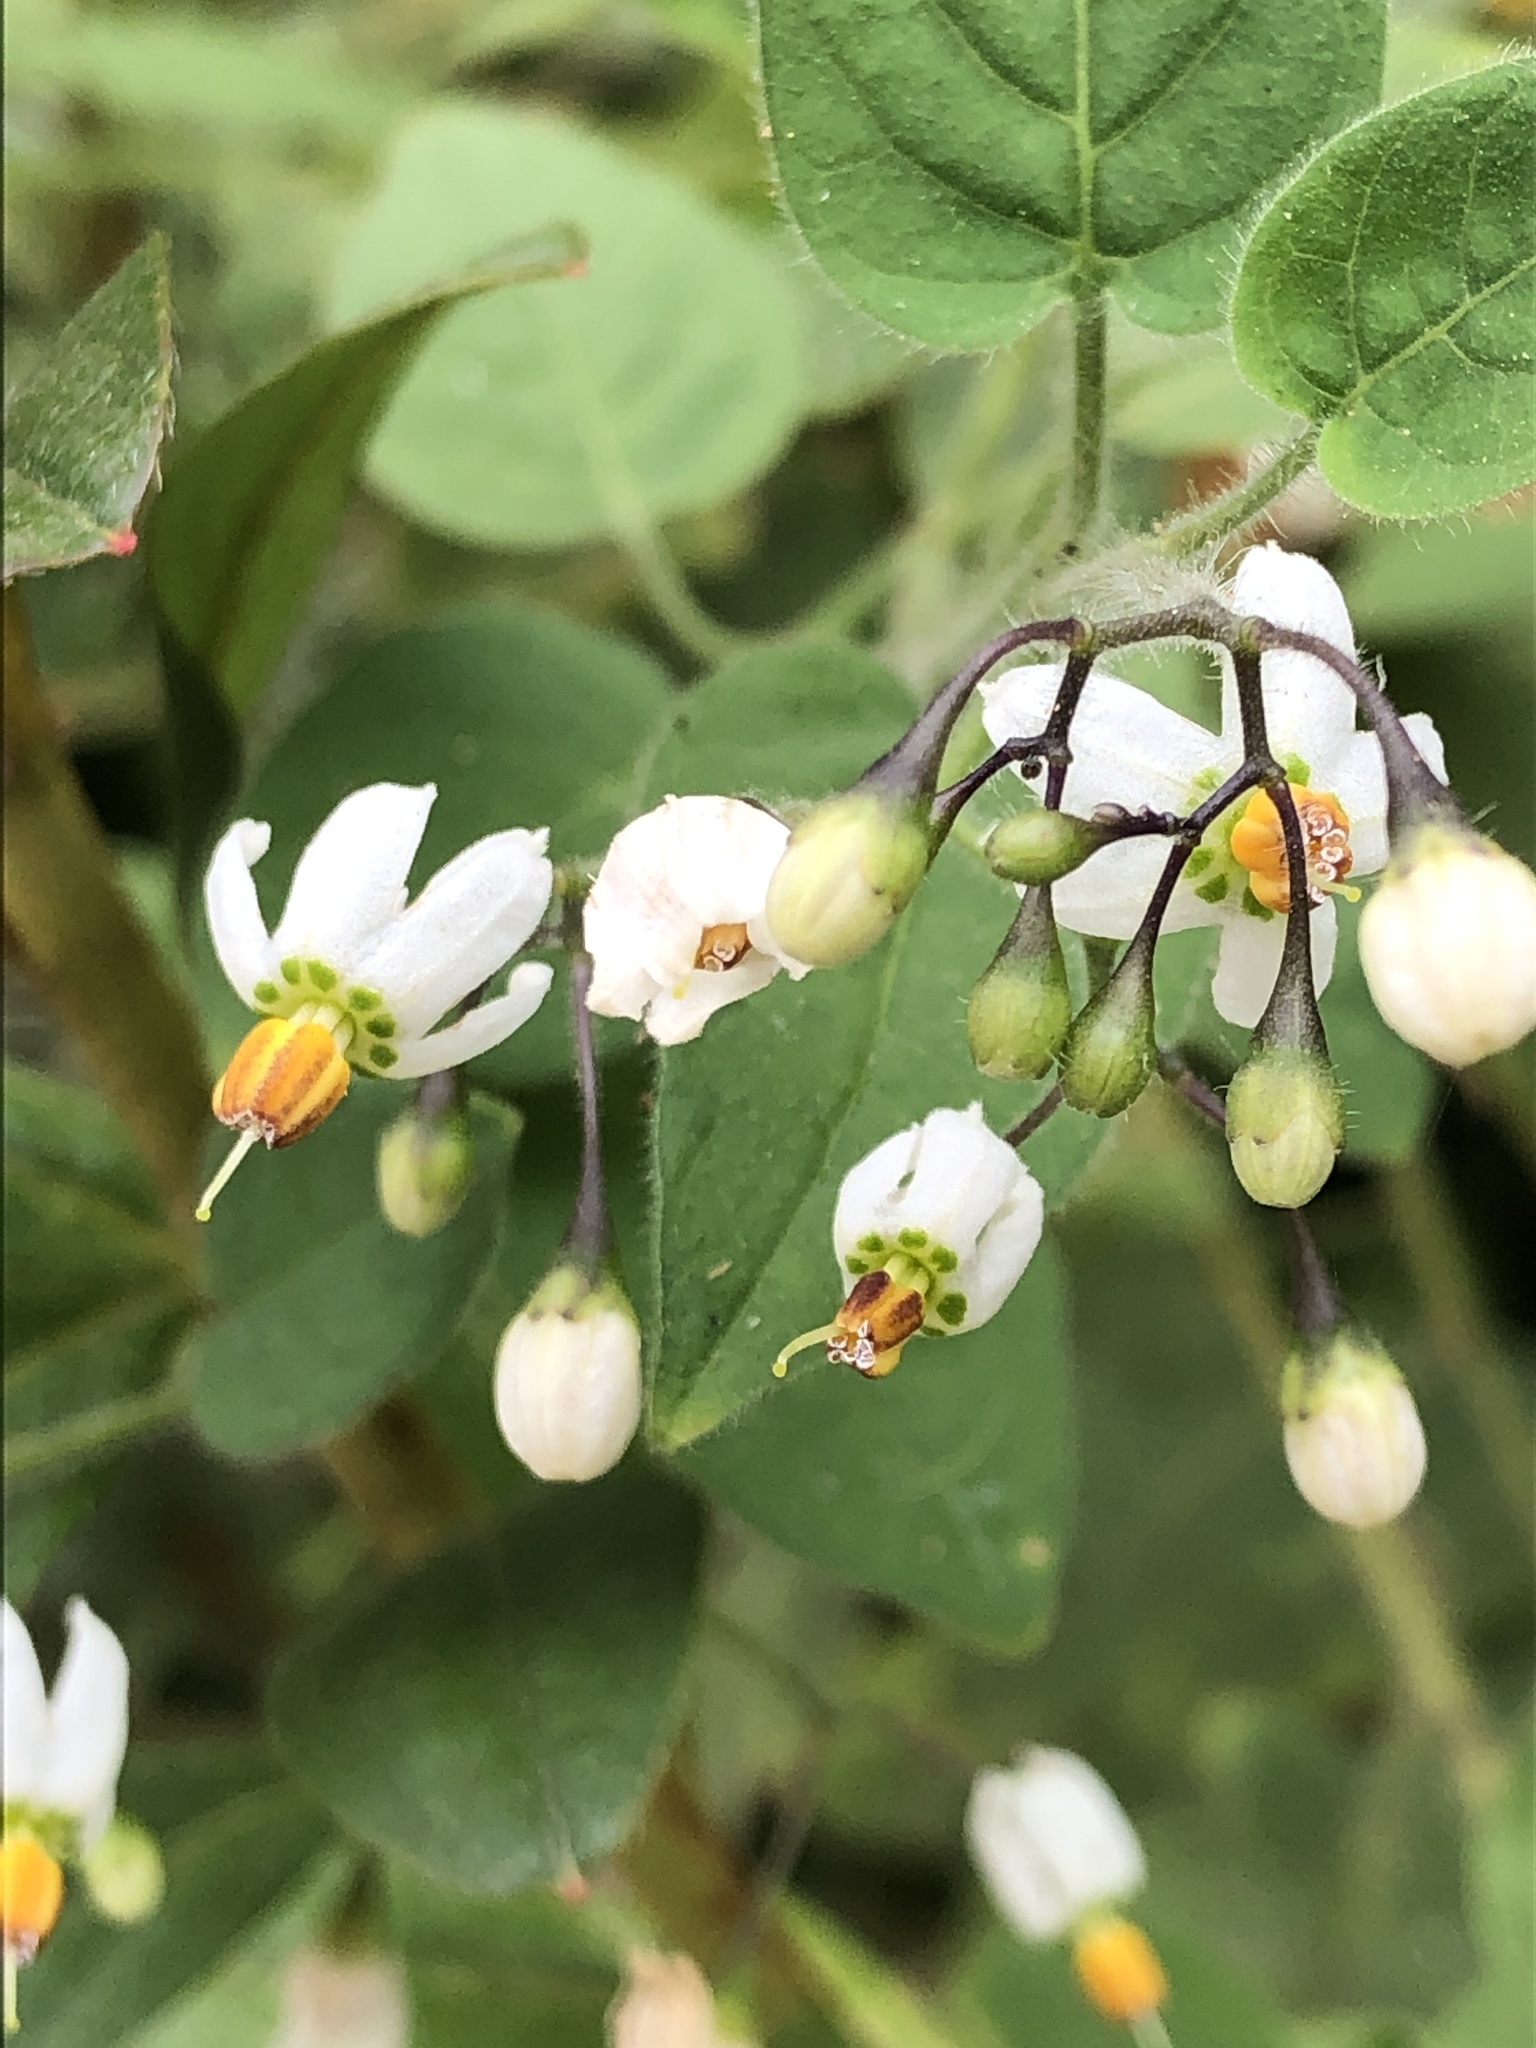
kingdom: Plantae
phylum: Tracheophyta
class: Magnoliopsida
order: Solanales
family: Solanaceae
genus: Solanum
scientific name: Solanum lyratum
